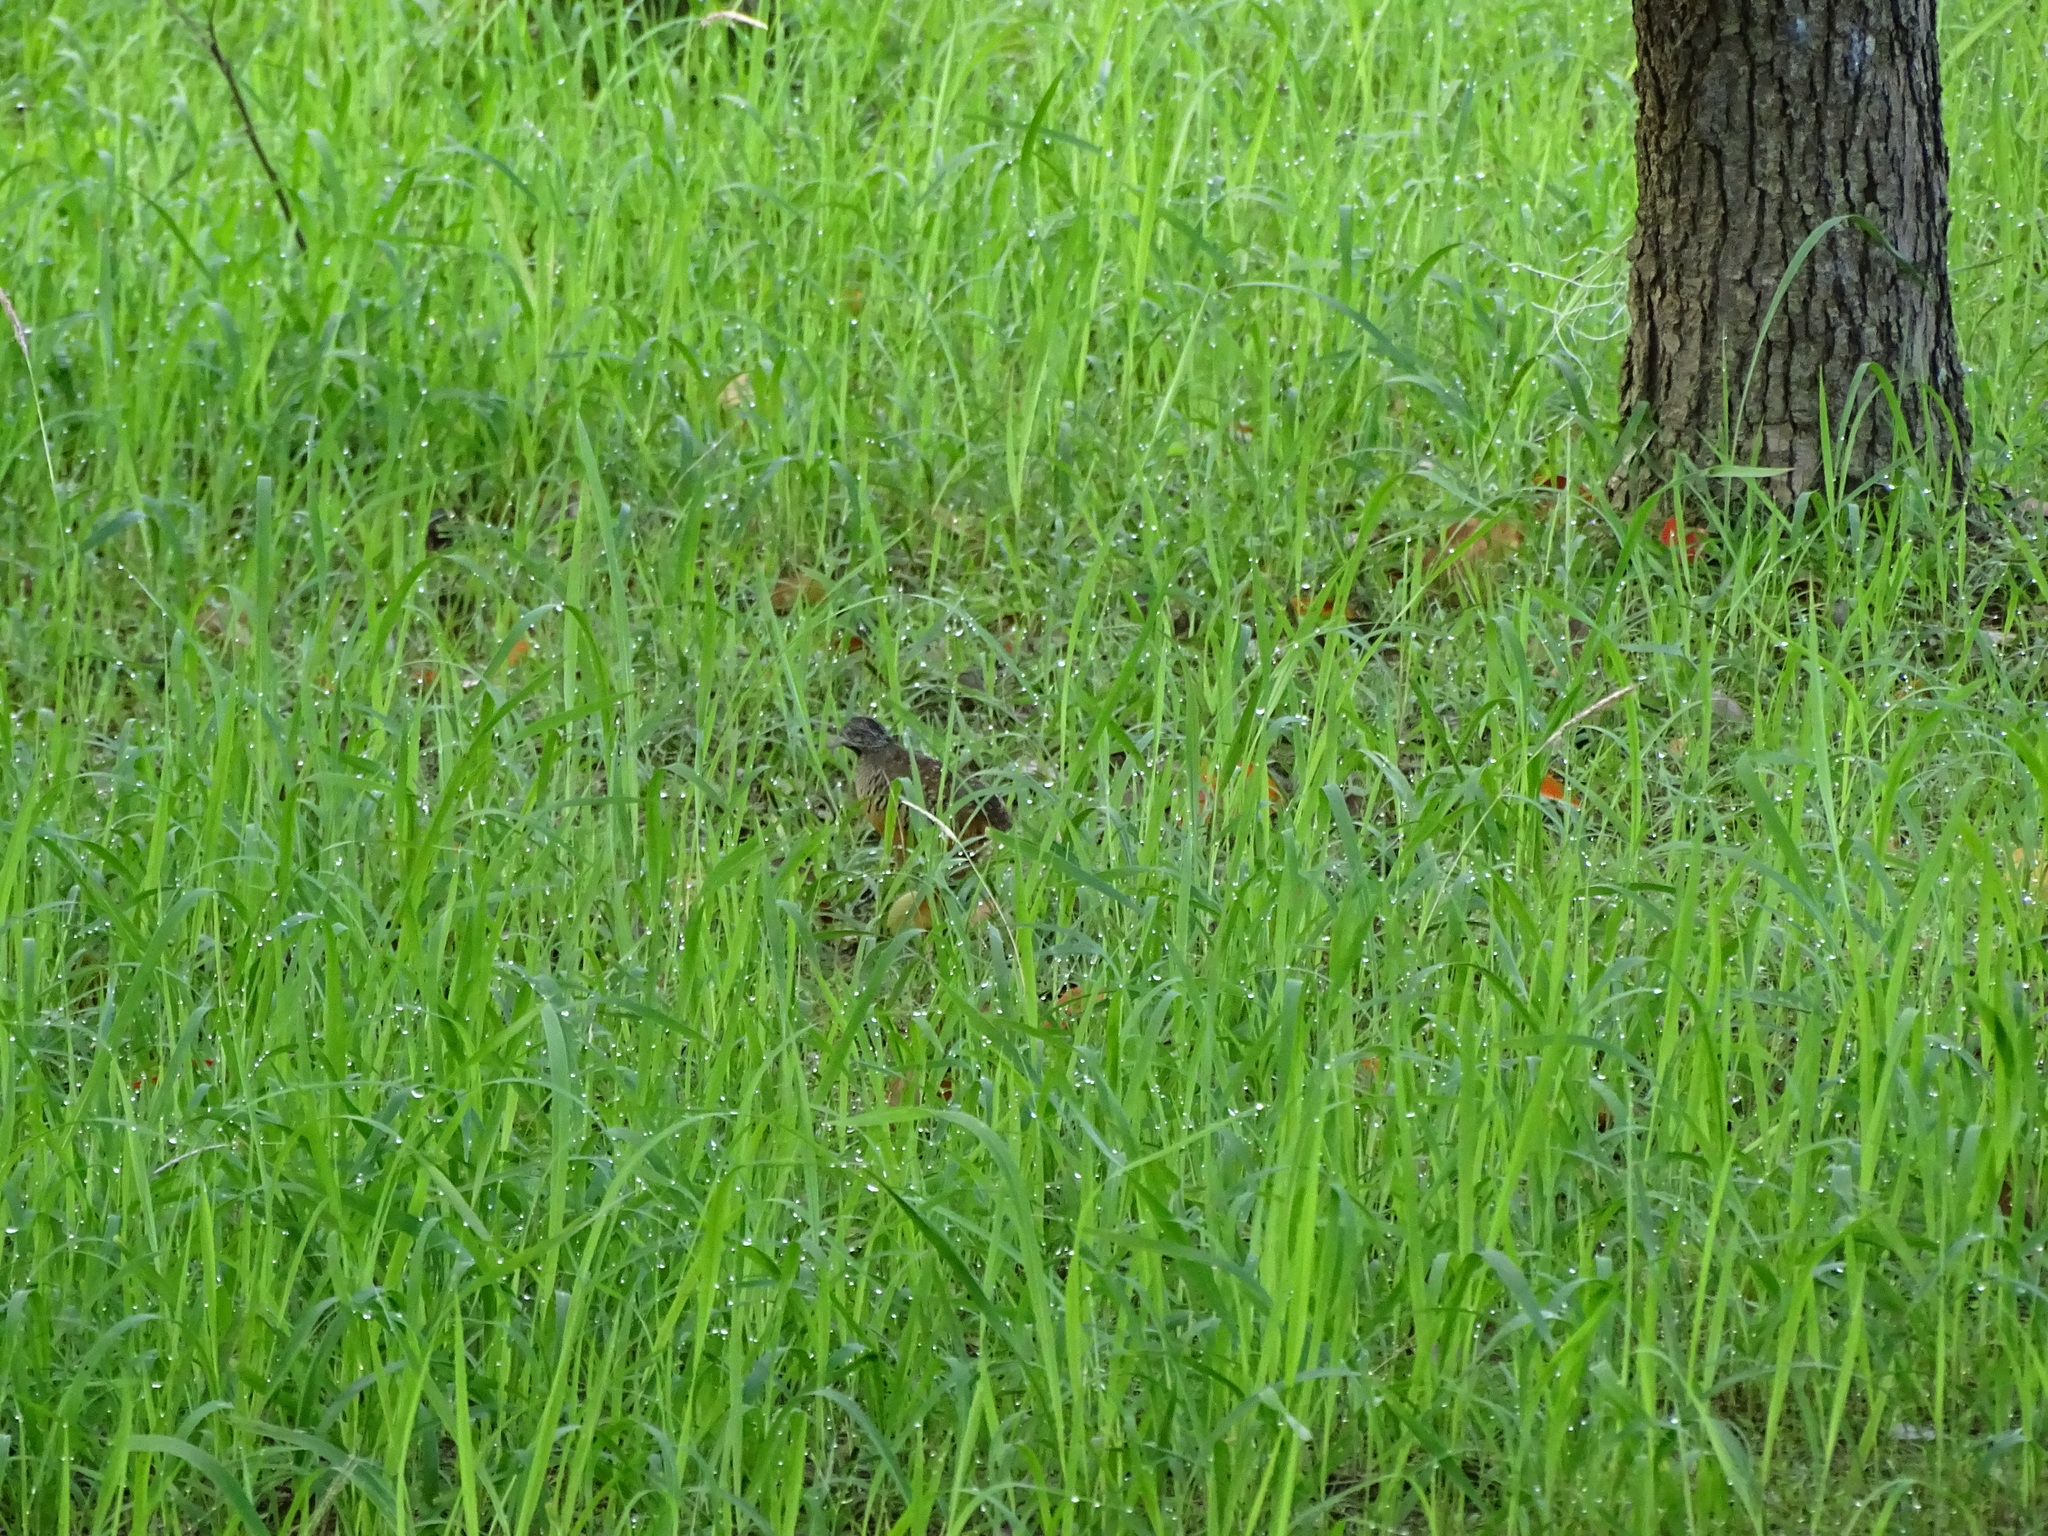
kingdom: Animalia
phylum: Chordata
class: Aves
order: Charadriiformes
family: Turnicidae
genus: Turnix
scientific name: Turnix suscitator
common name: Barred buttonquail
